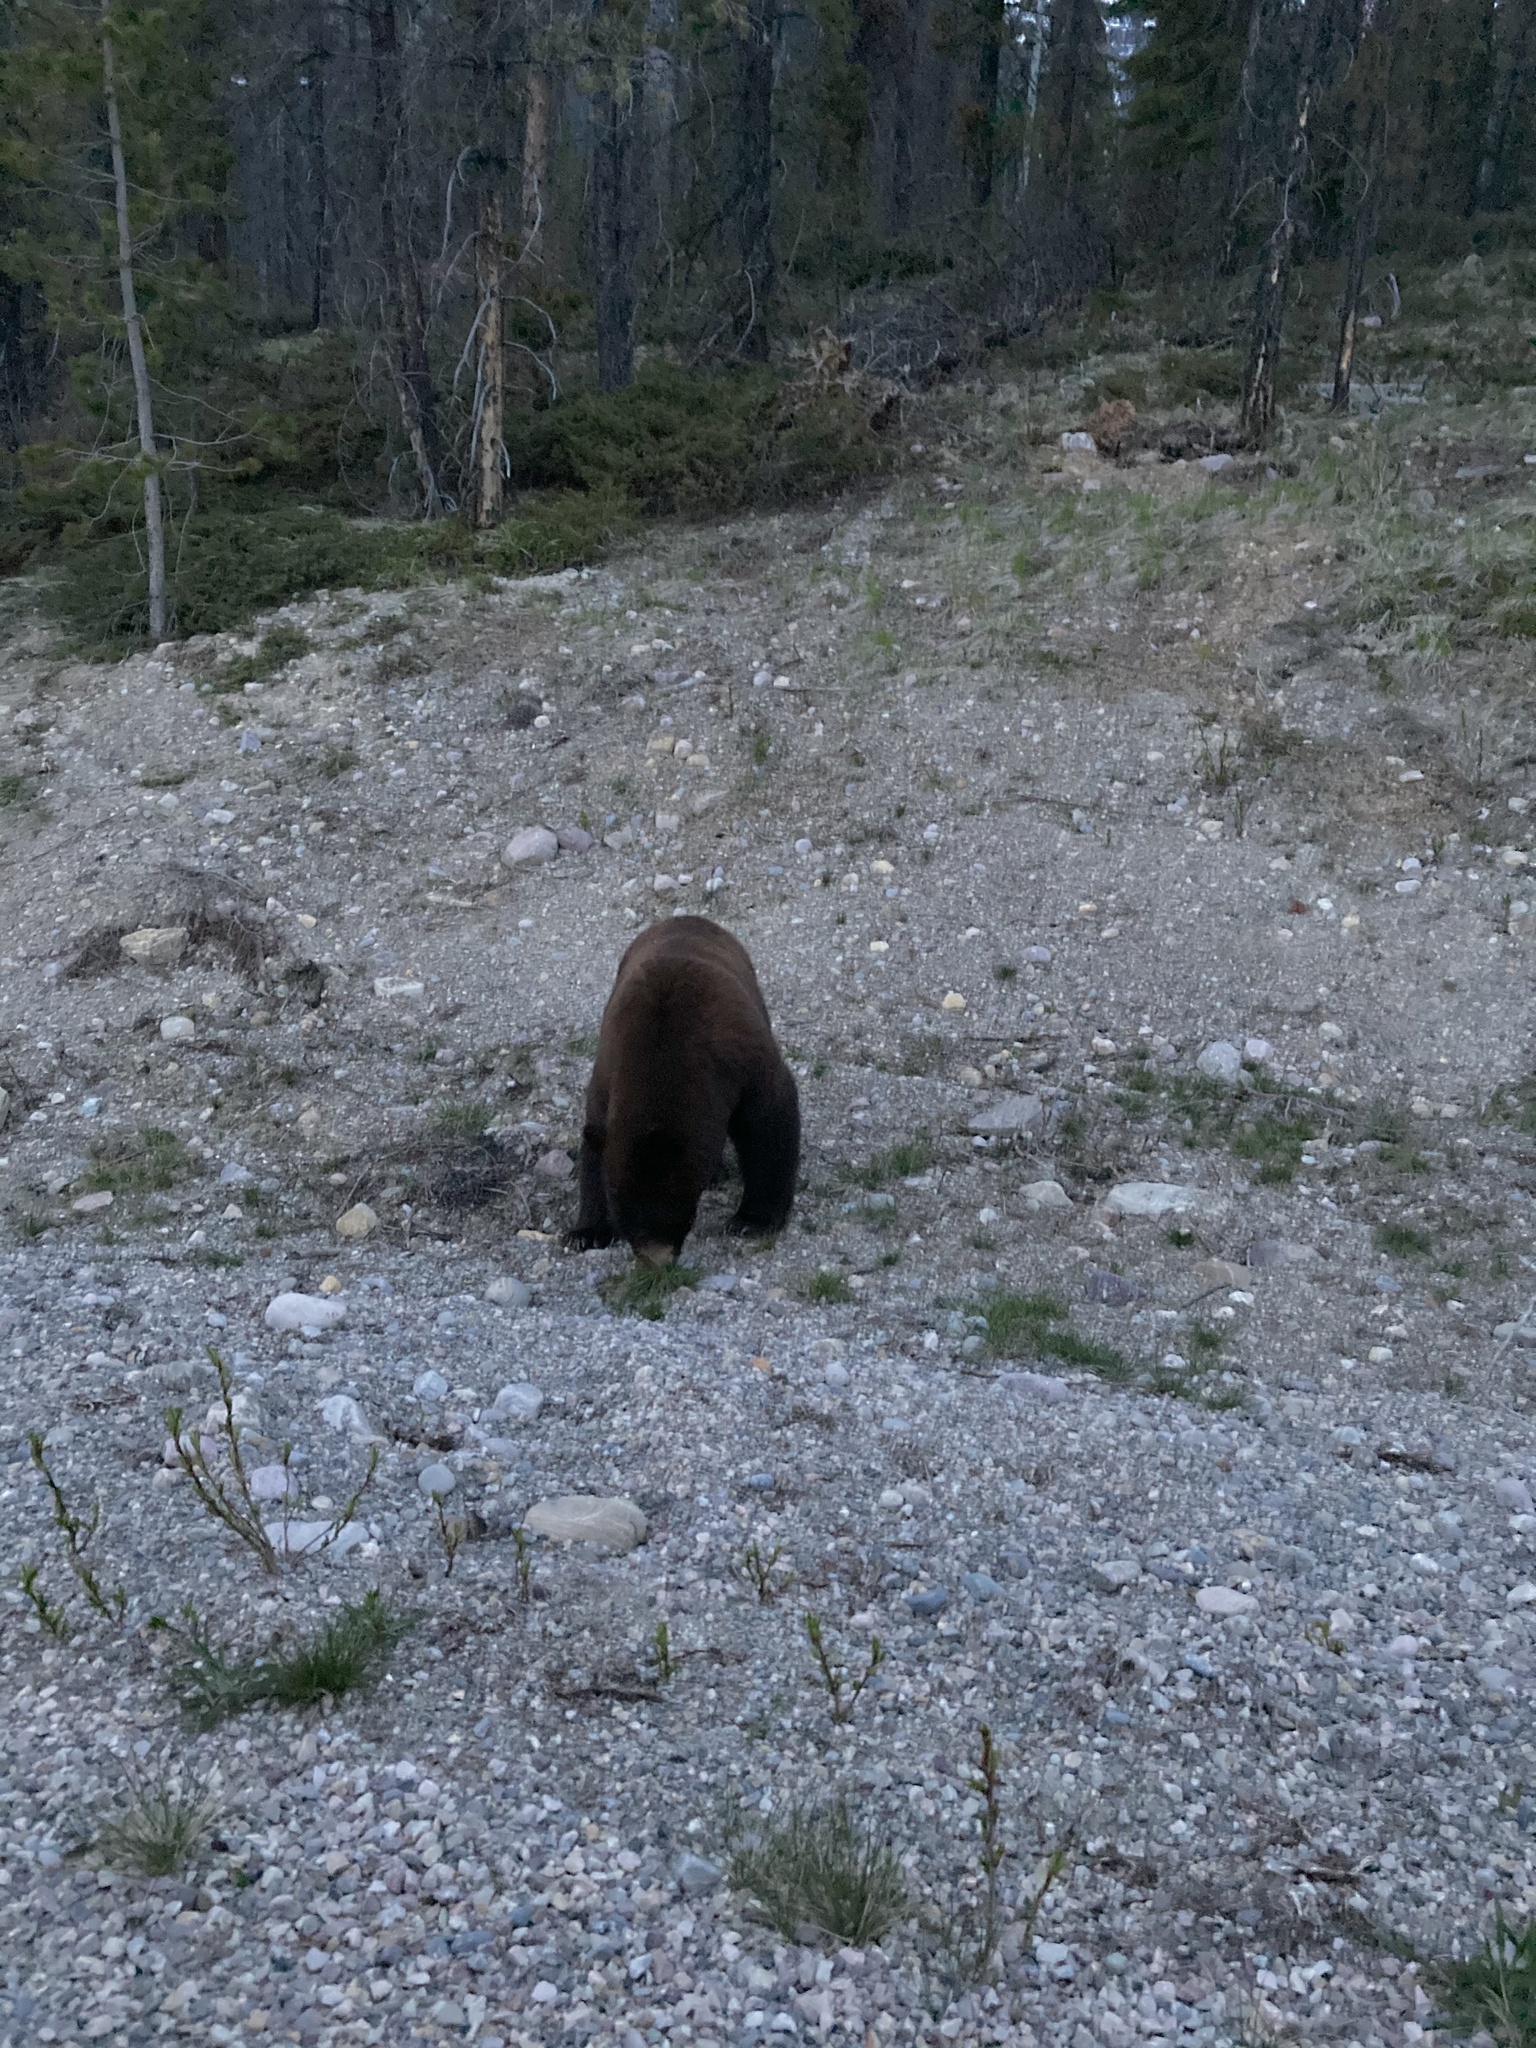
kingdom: Animalia
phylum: Chordata
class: Mammalia
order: Carnivora
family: Ursidae
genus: Ursus
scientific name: Ursus americanus
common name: American black bear
